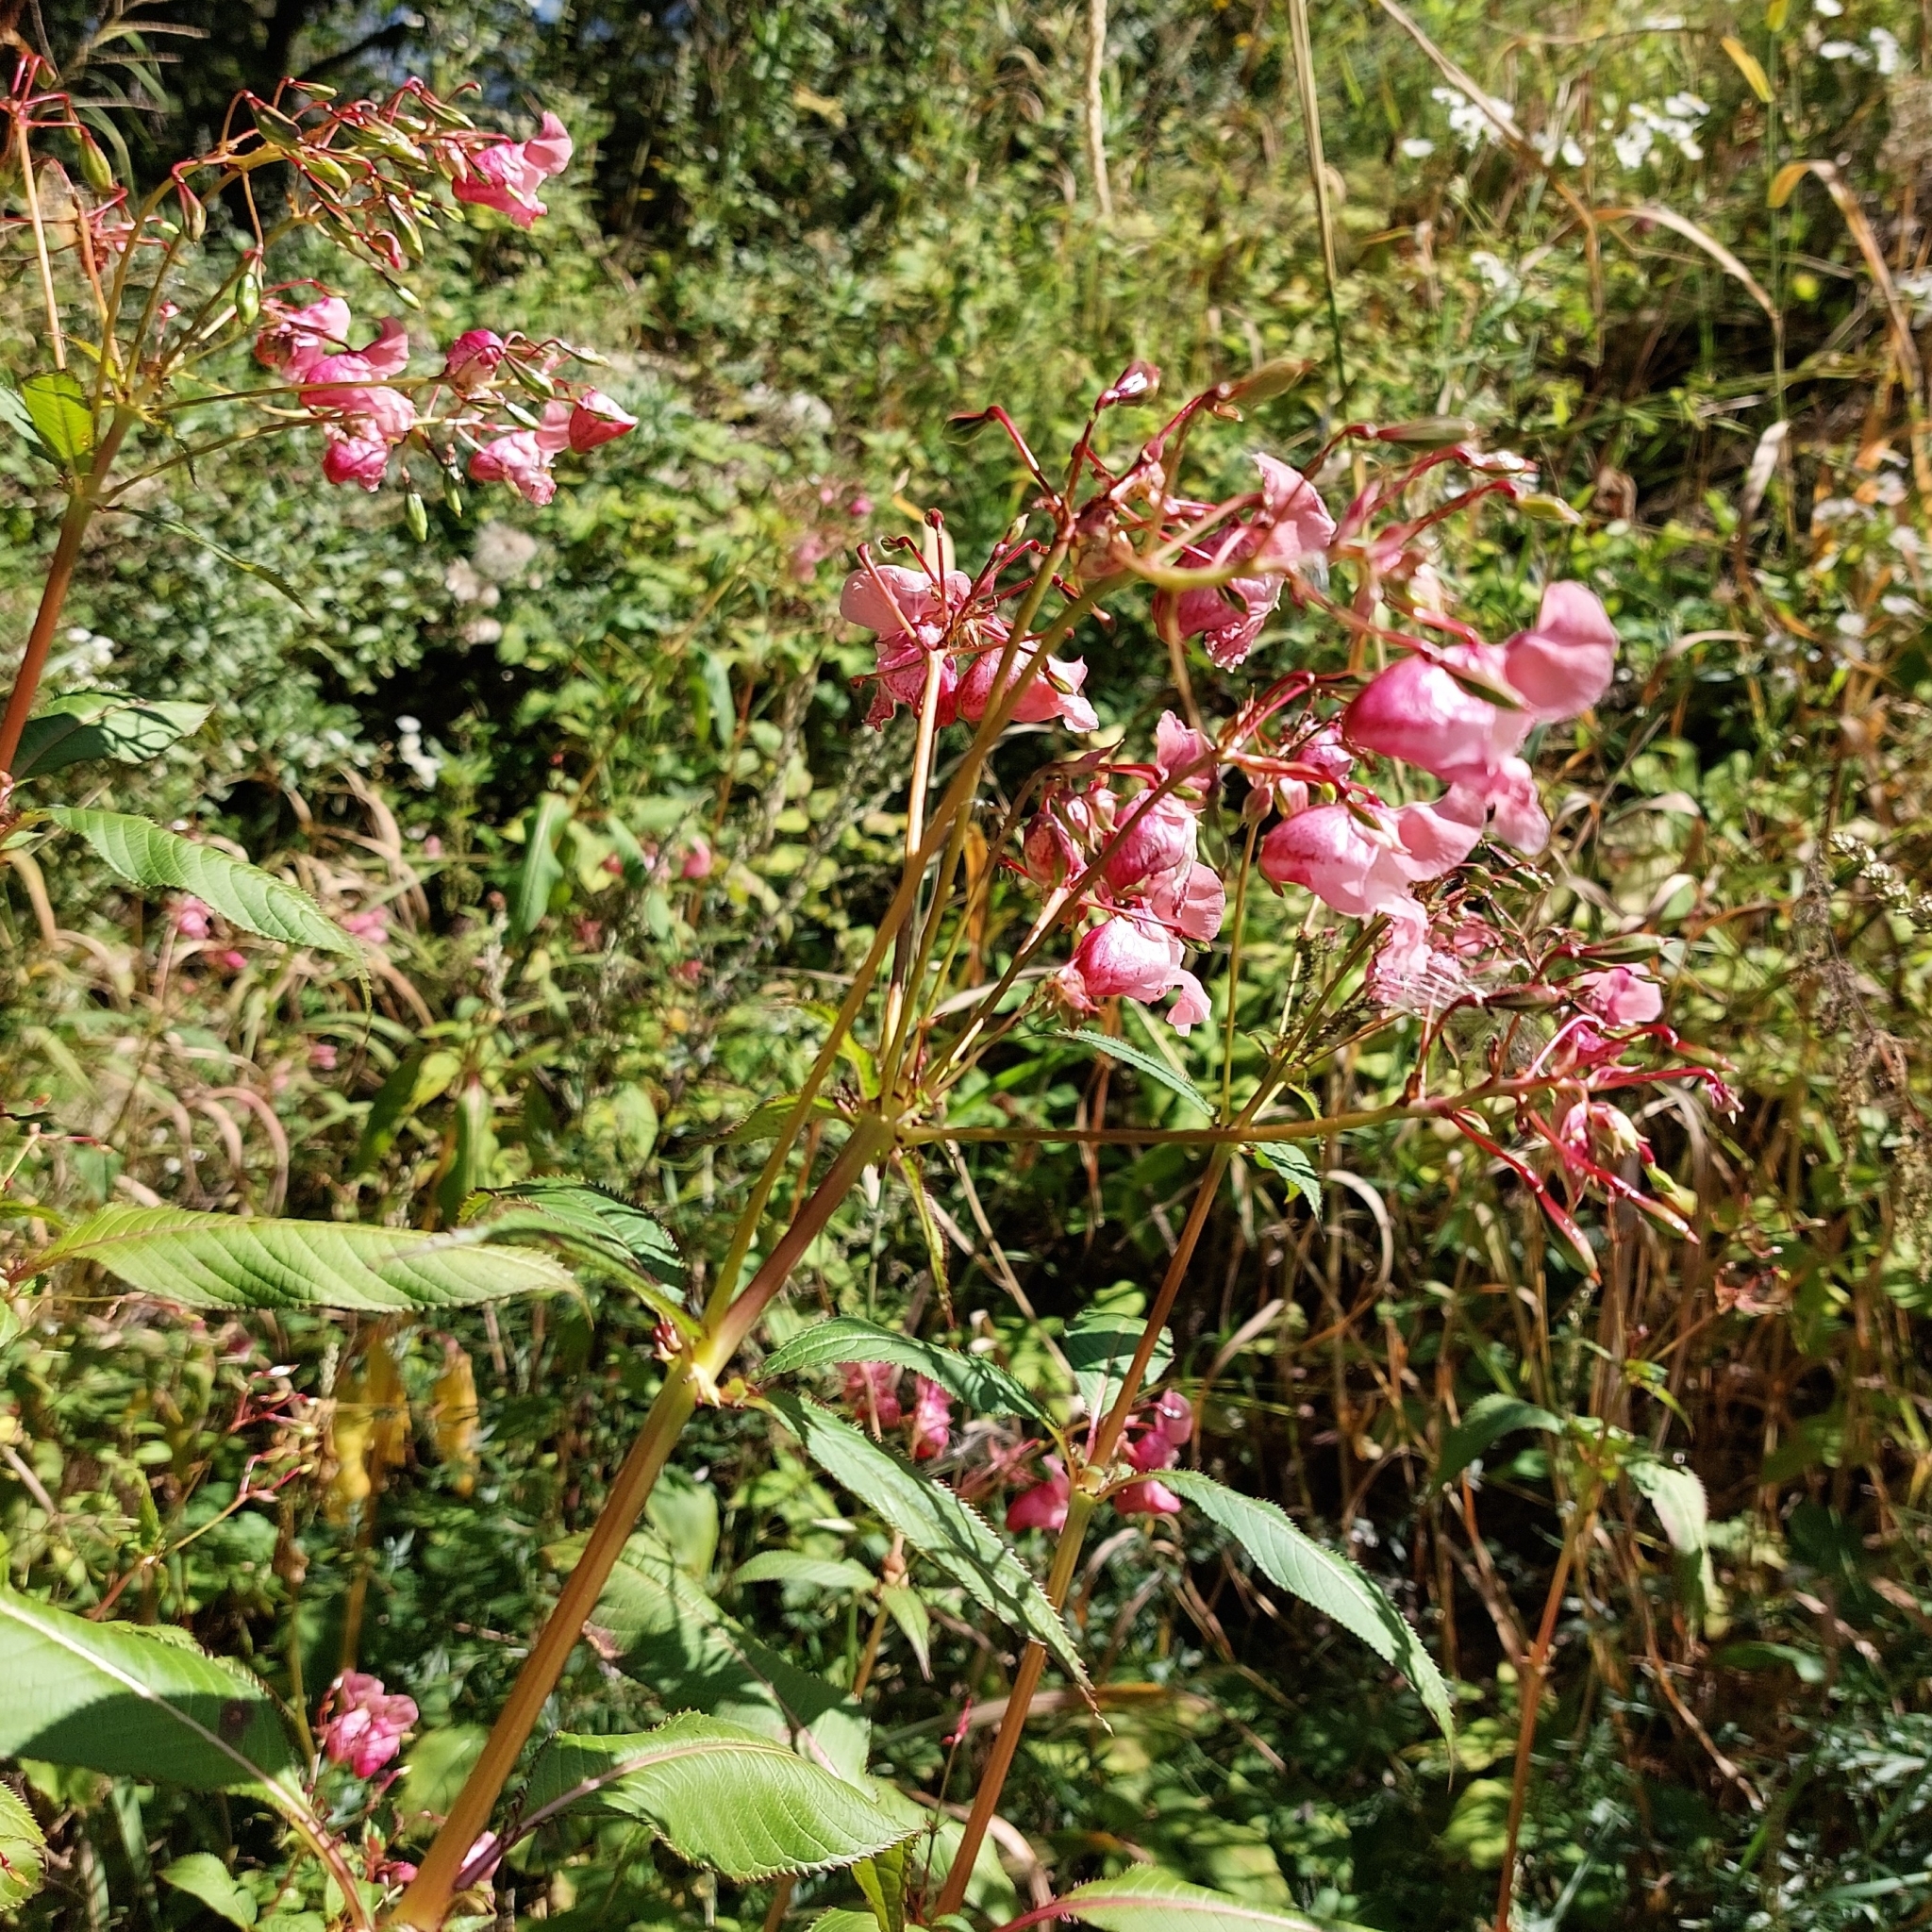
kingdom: Plantae
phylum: Tracheophyta
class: Magnoliopsida
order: Ericales
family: Balsaminaceae
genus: Impatiens
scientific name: Impatiens glandulifera
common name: Himalayan balsam
